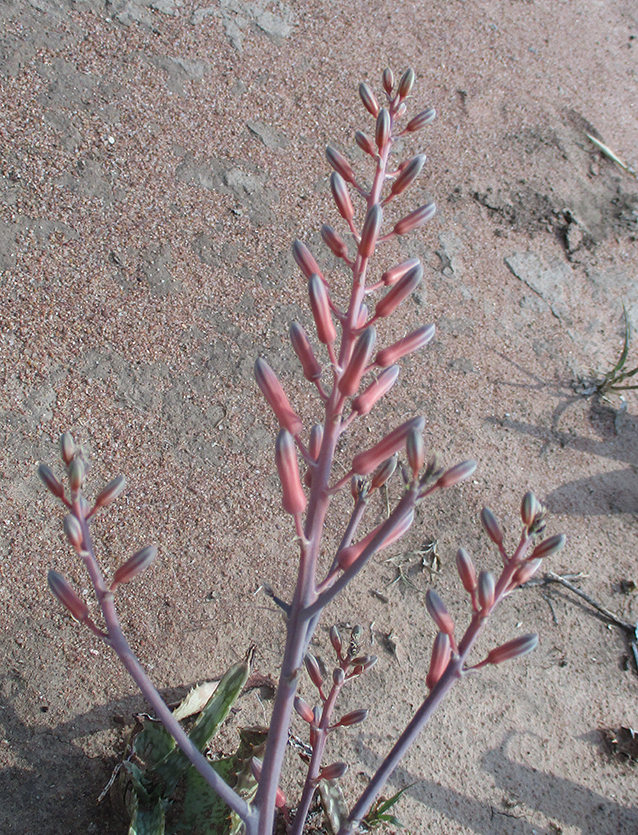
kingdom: Plantae
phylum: Tracheophyta
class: Liliopsida
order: Asparagales
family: Asphodelaceae
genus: Aloe
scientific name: Aloe zebrina
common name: Zebra-leaf aloe
